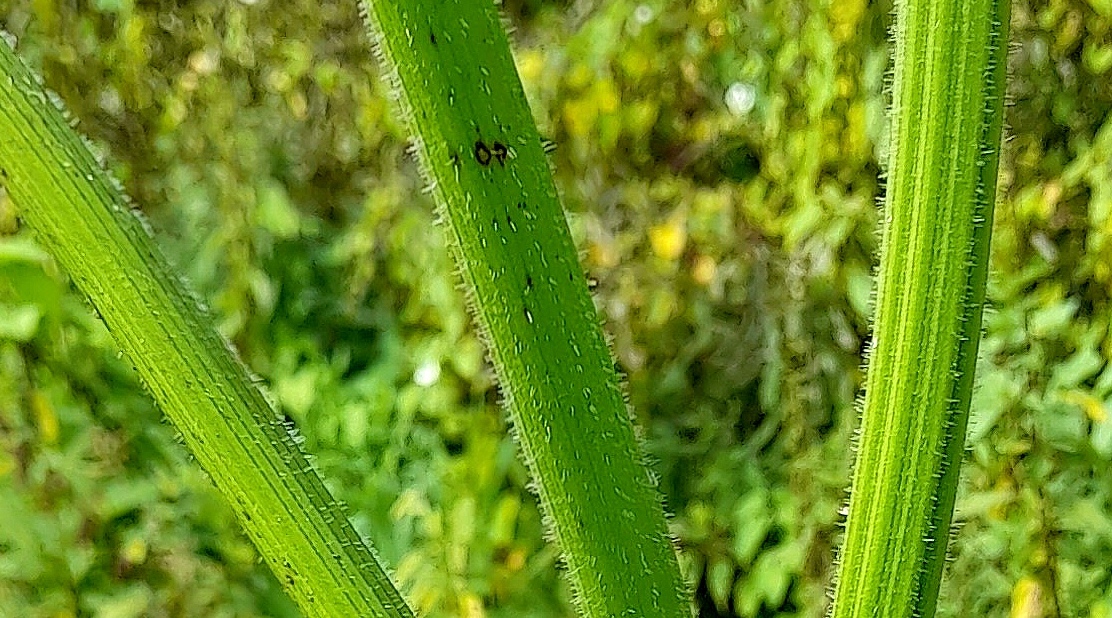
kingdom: Plantae
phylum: Tracheophyta
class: Magnoliopsida
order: Apiales
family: Apiaceae
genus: Heracleum
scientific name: Heracleum sosnowskyi
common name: Sosnowsky's hogweed
